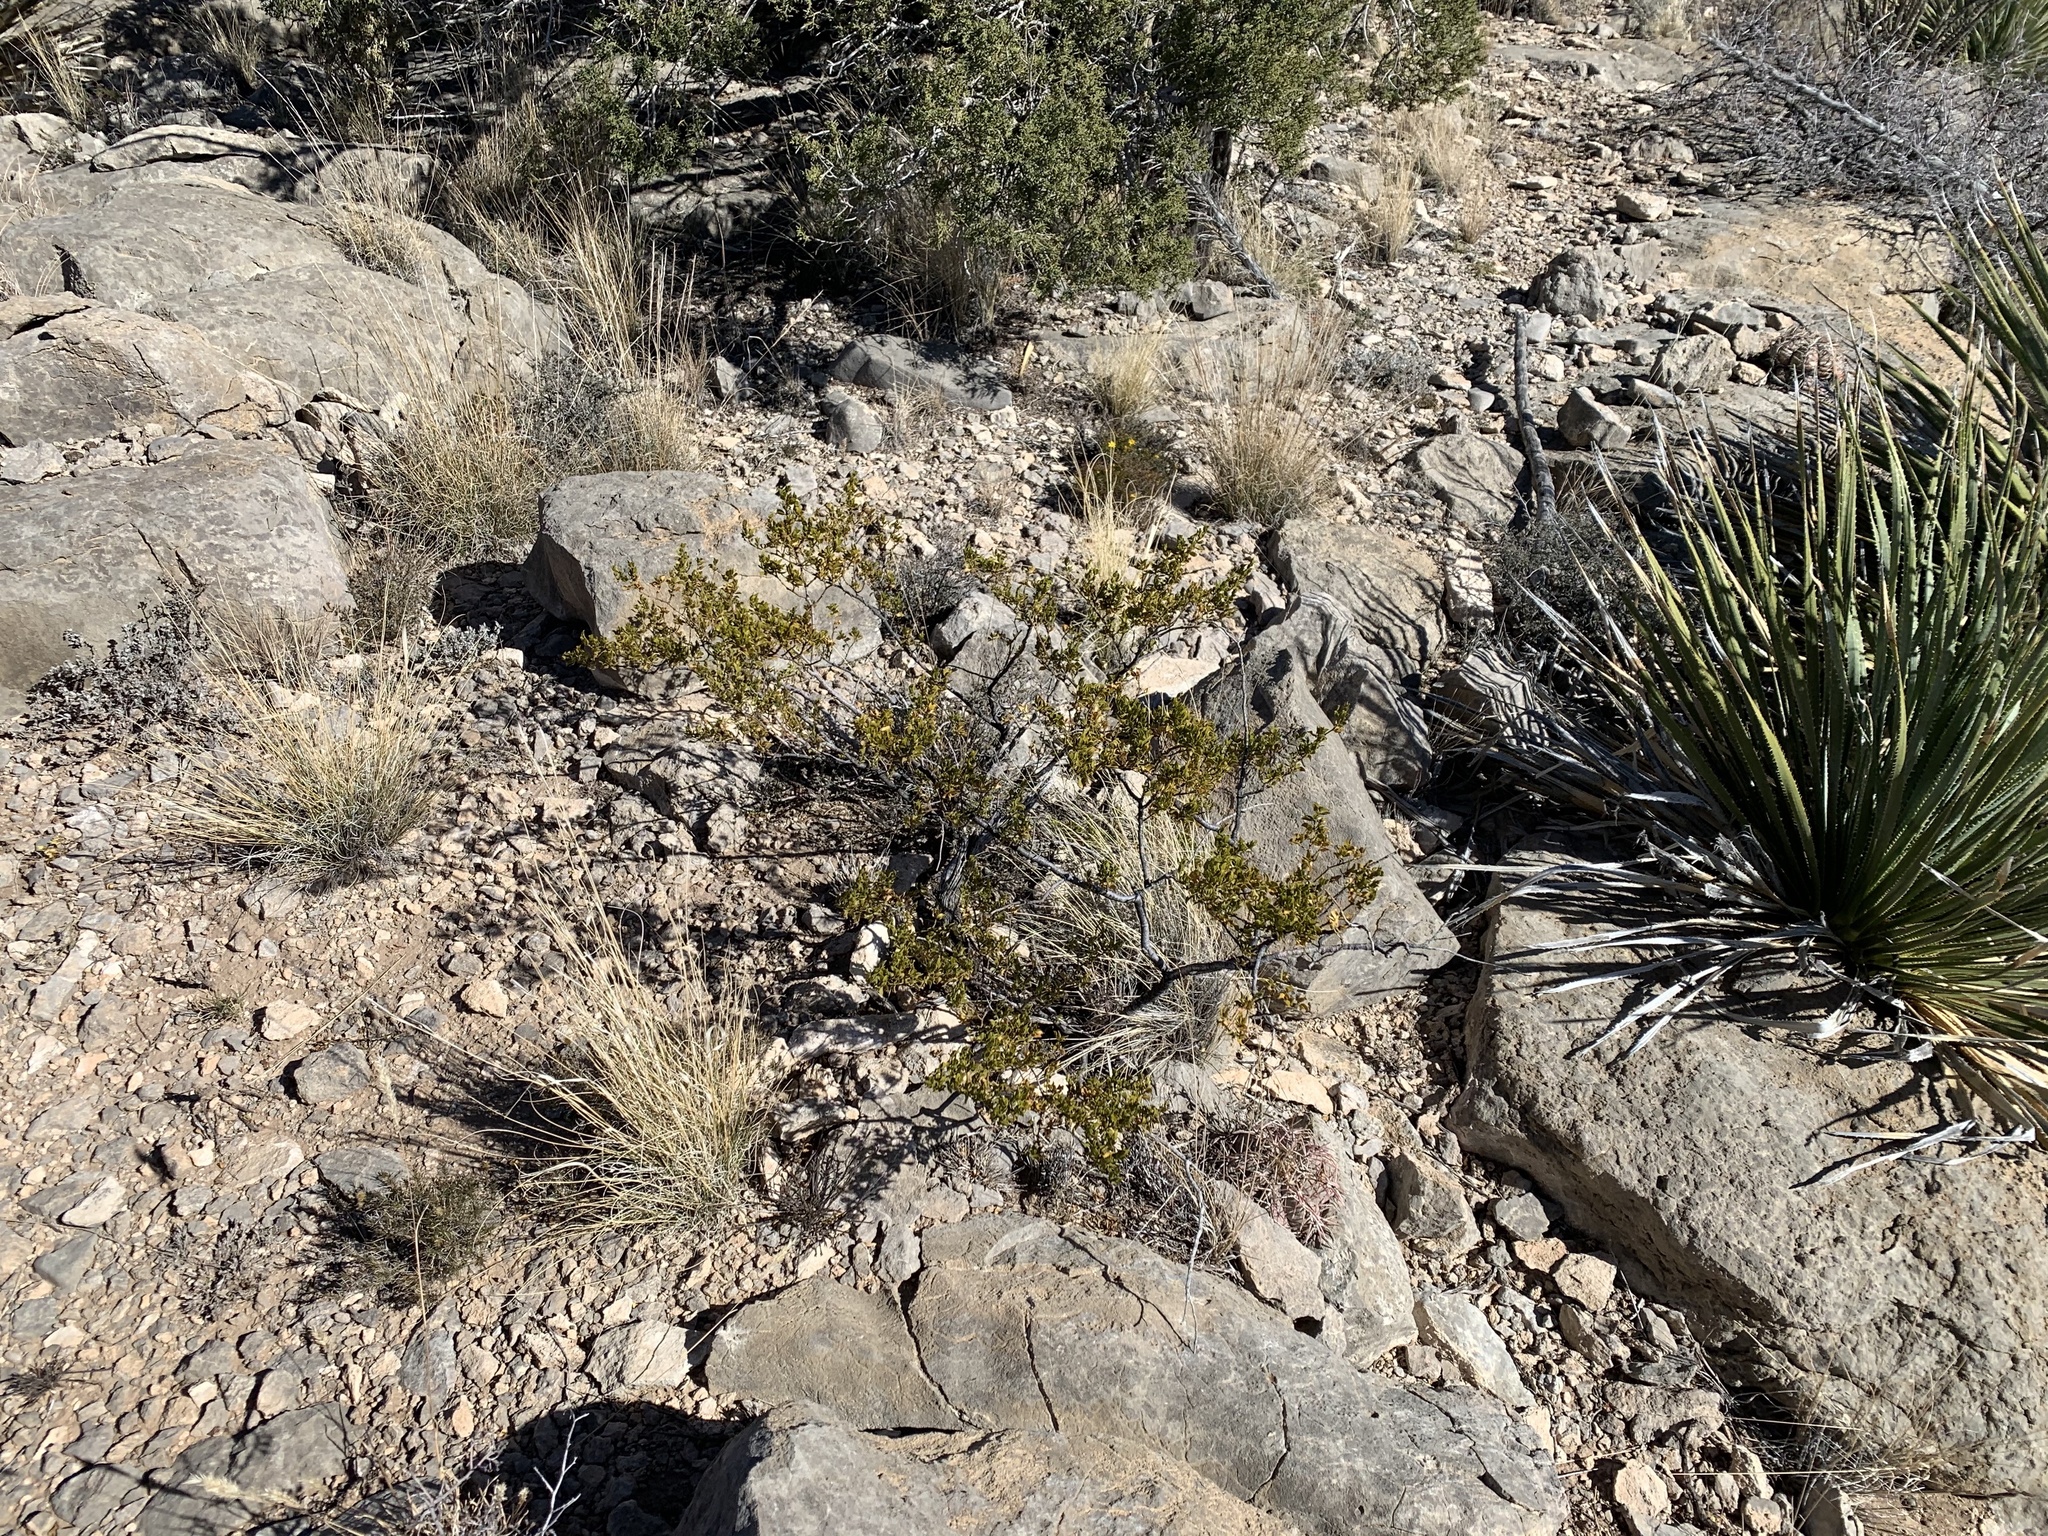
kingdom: Plantae
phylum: Tracheophyta
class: Magnoliopsida
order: Zygophyllales
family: Zygophyllaceae
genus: Larrea
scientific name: Larrea tridentata
